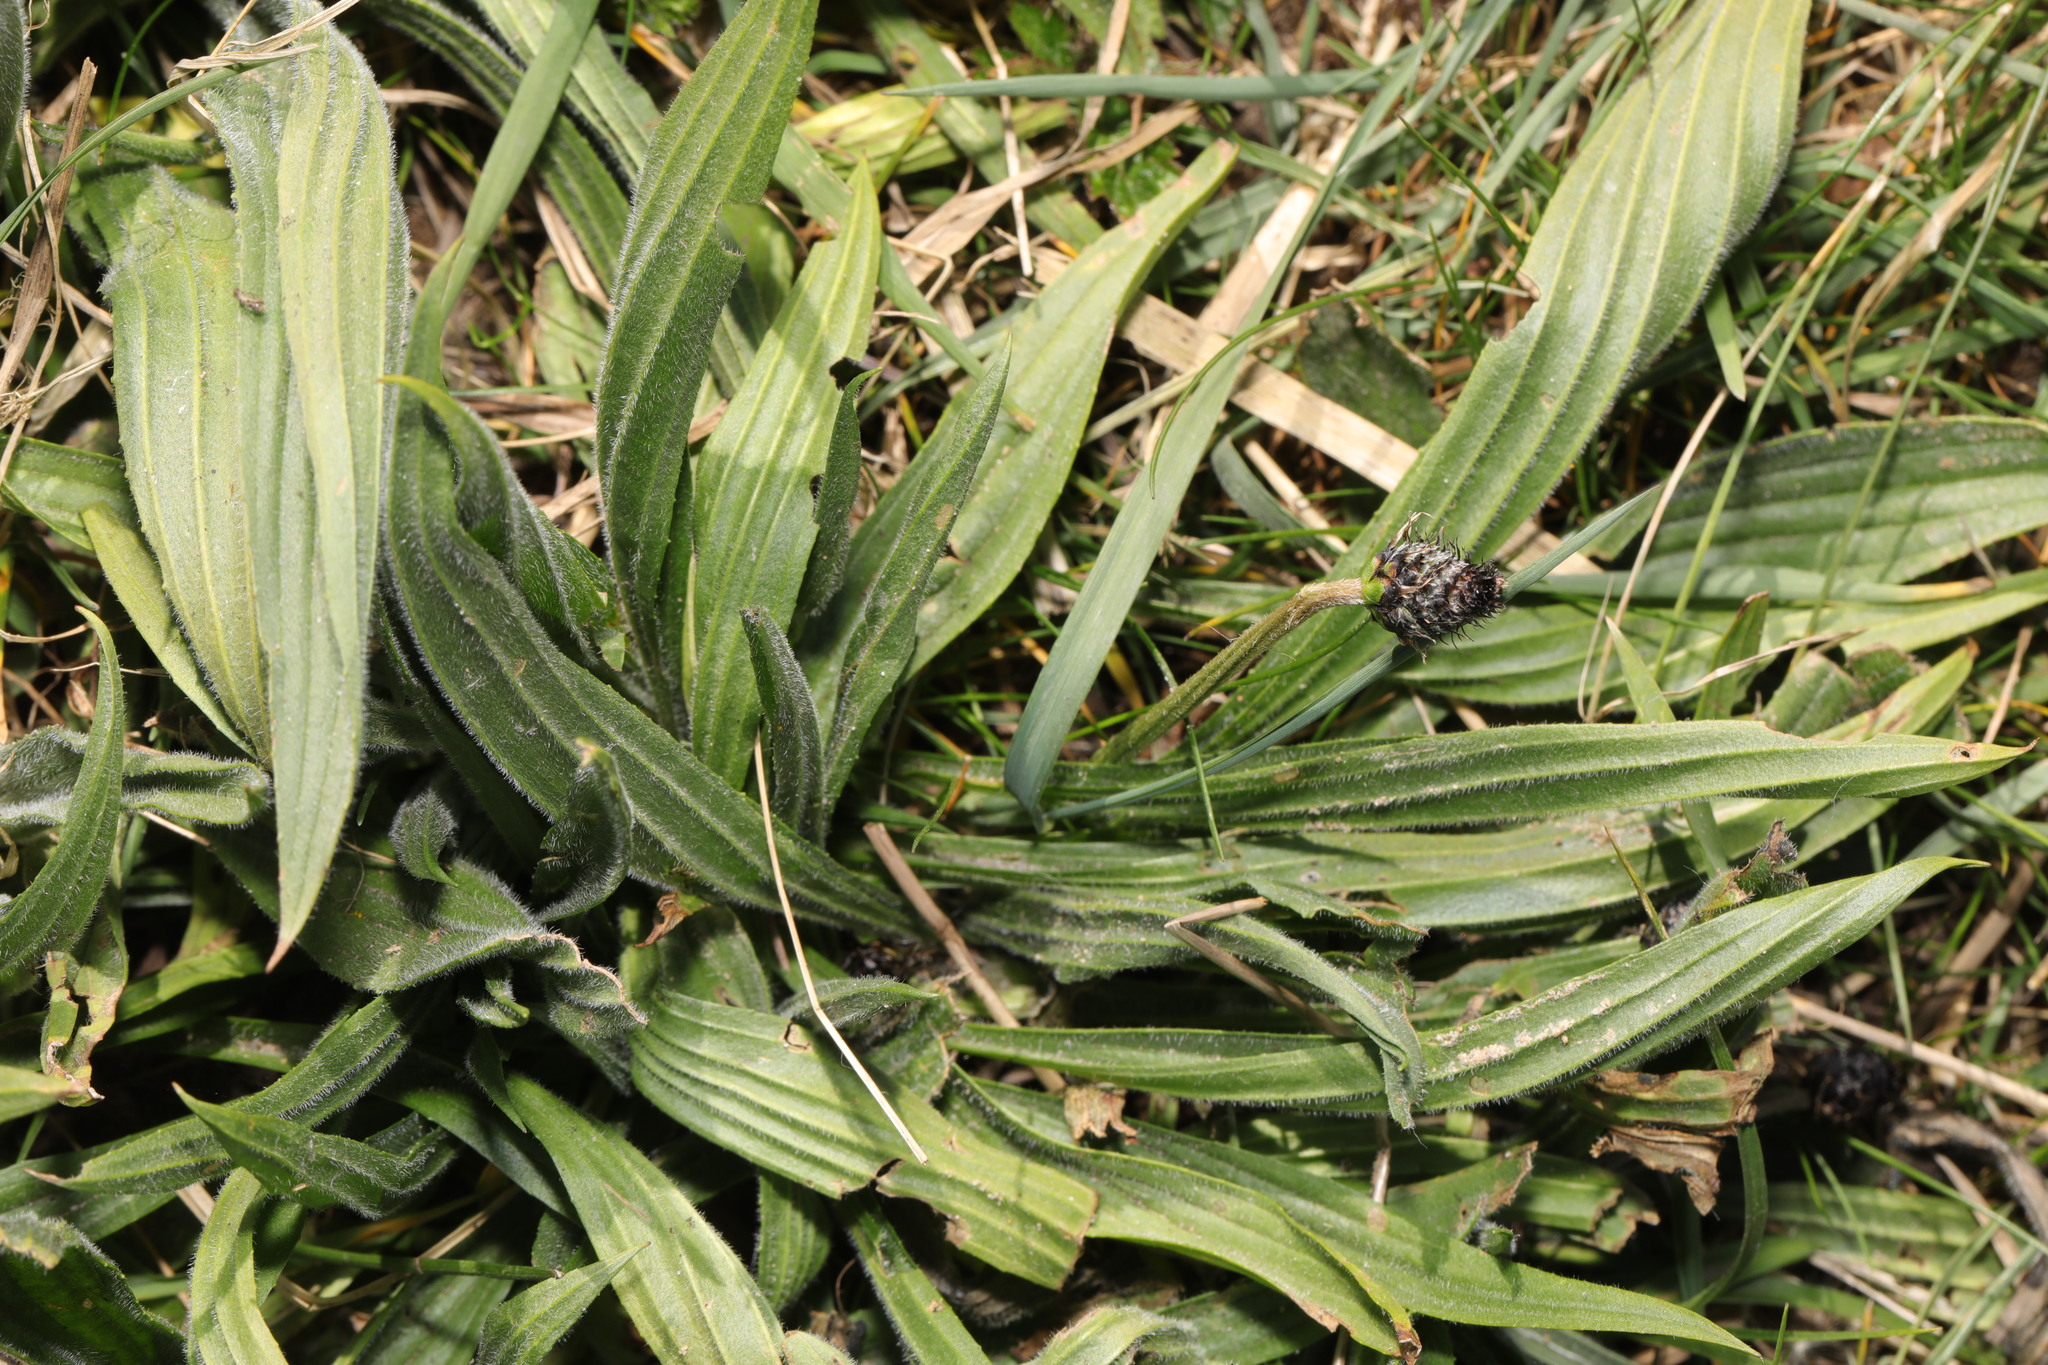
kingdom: Plantae
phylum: Tracheophyta
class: Magnoliopsida
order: Lamiales
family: Plantaginaceae
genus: Plantago
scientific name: Plantago lanceolata
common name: Ribwort plantain
